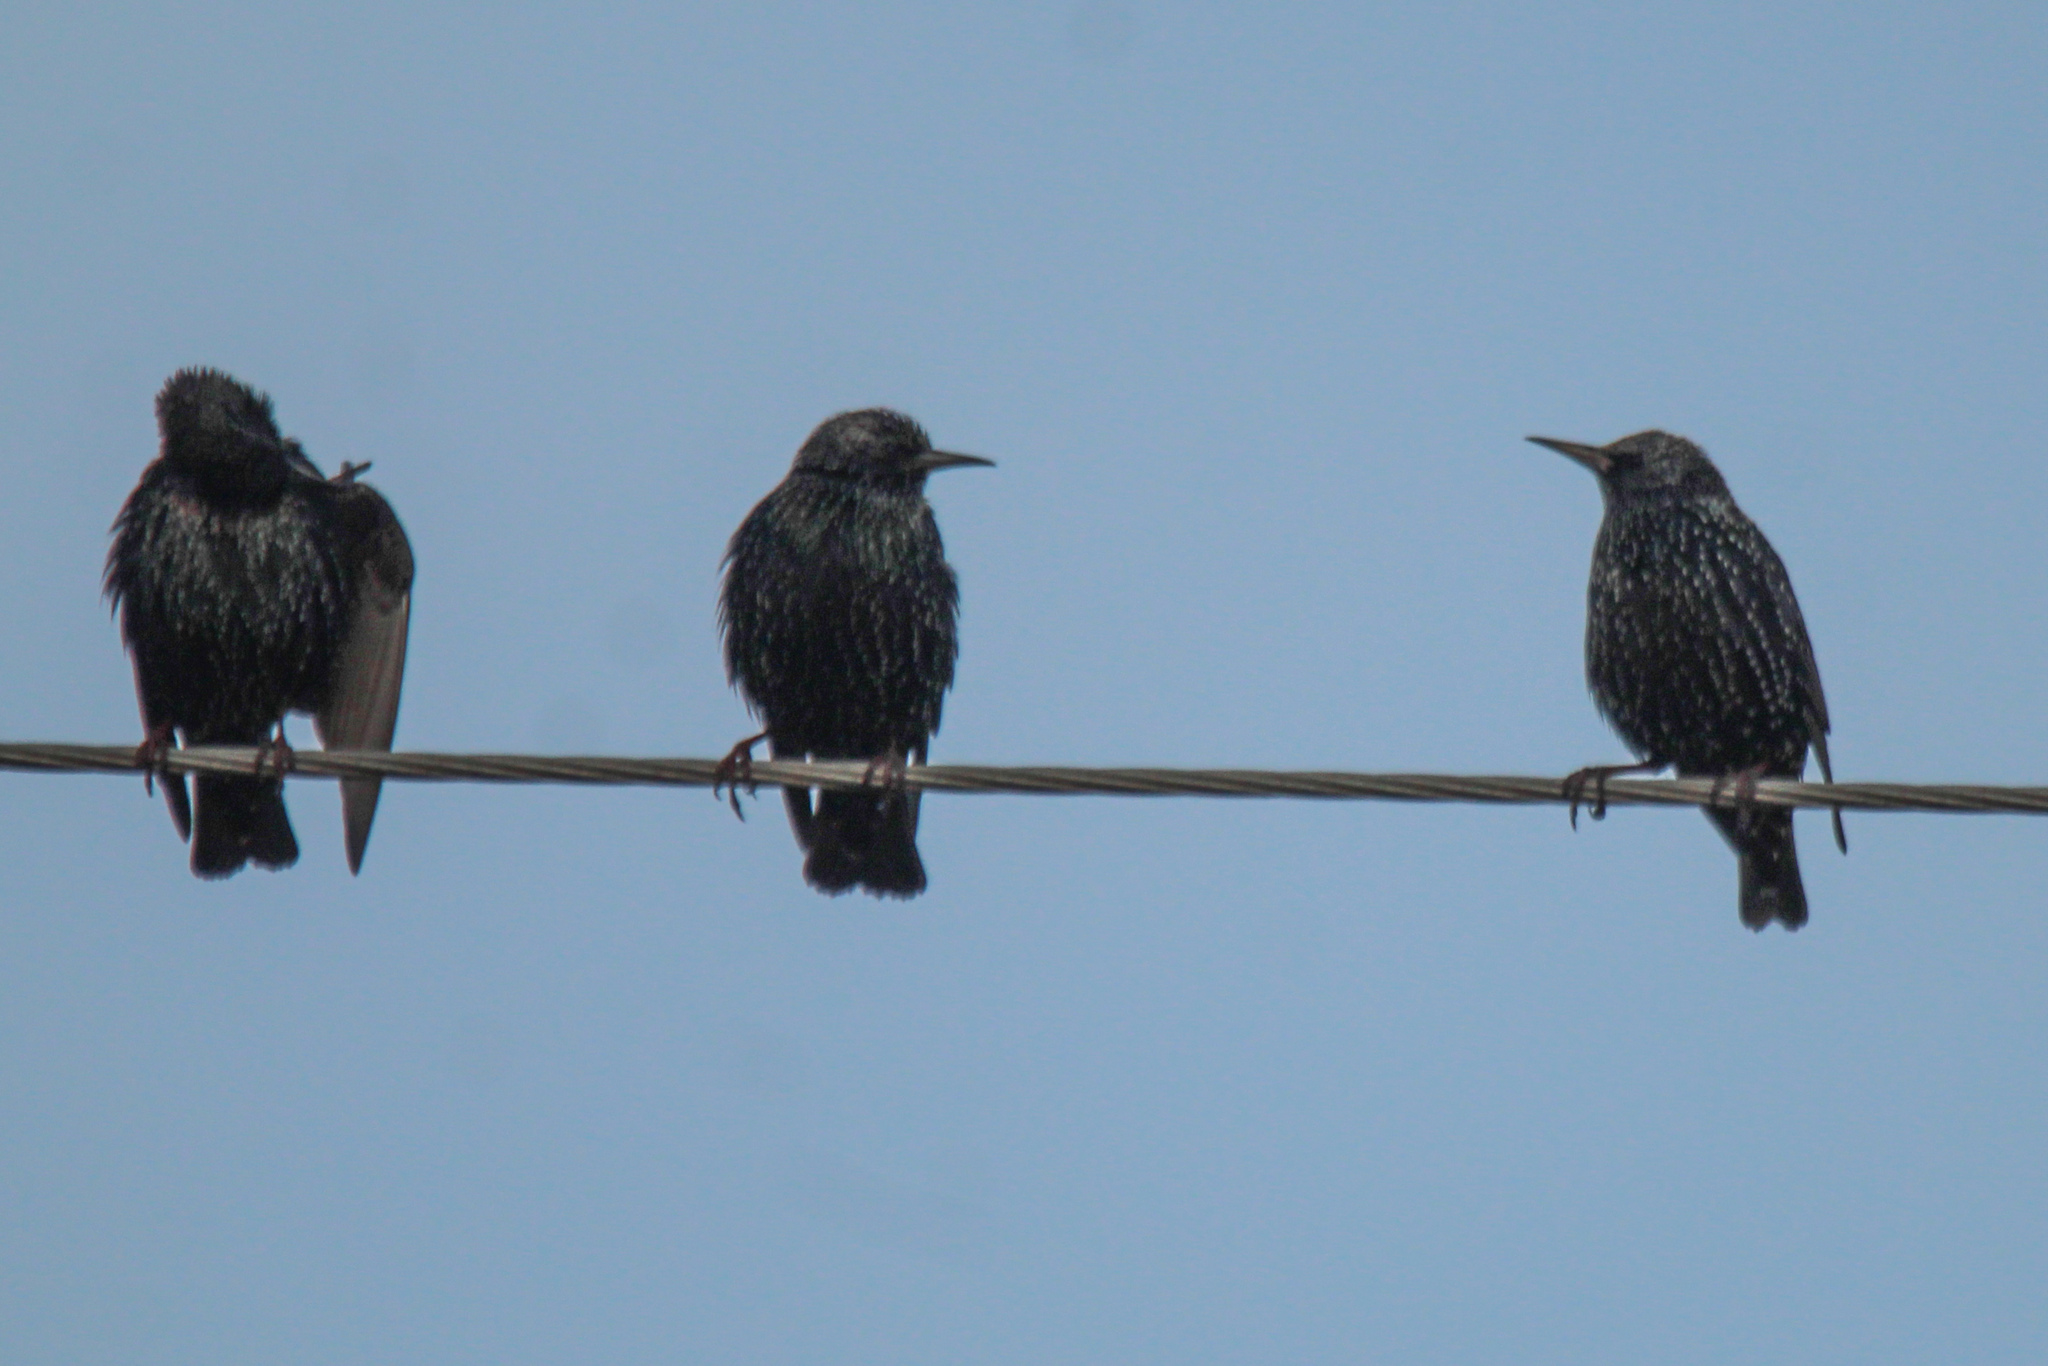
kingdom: Animalia
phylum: Chordata
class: Aves
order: Passeriformes
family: Sturnidae
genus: Sturnus
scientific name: Sturnus vulgaris
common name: Common starling
